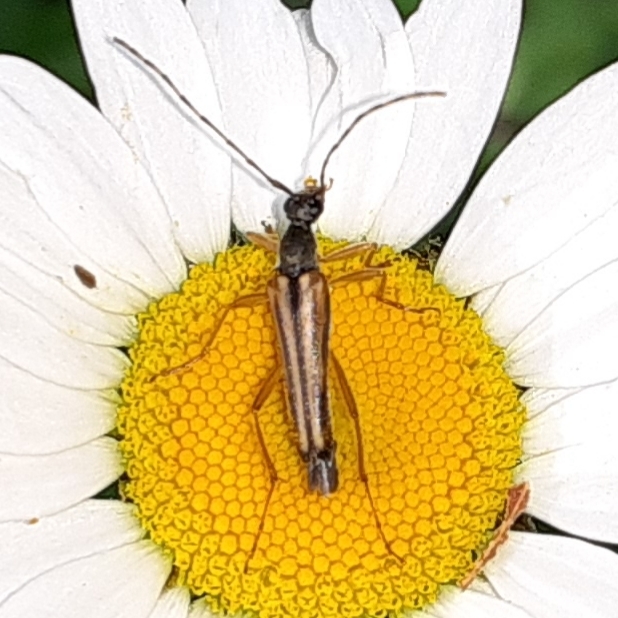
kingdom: Animalia
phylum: Arthropoda
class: Insecta
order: Coleoptera
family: Cerambycidae
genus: Analeptura
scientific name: Analeptura lineola
